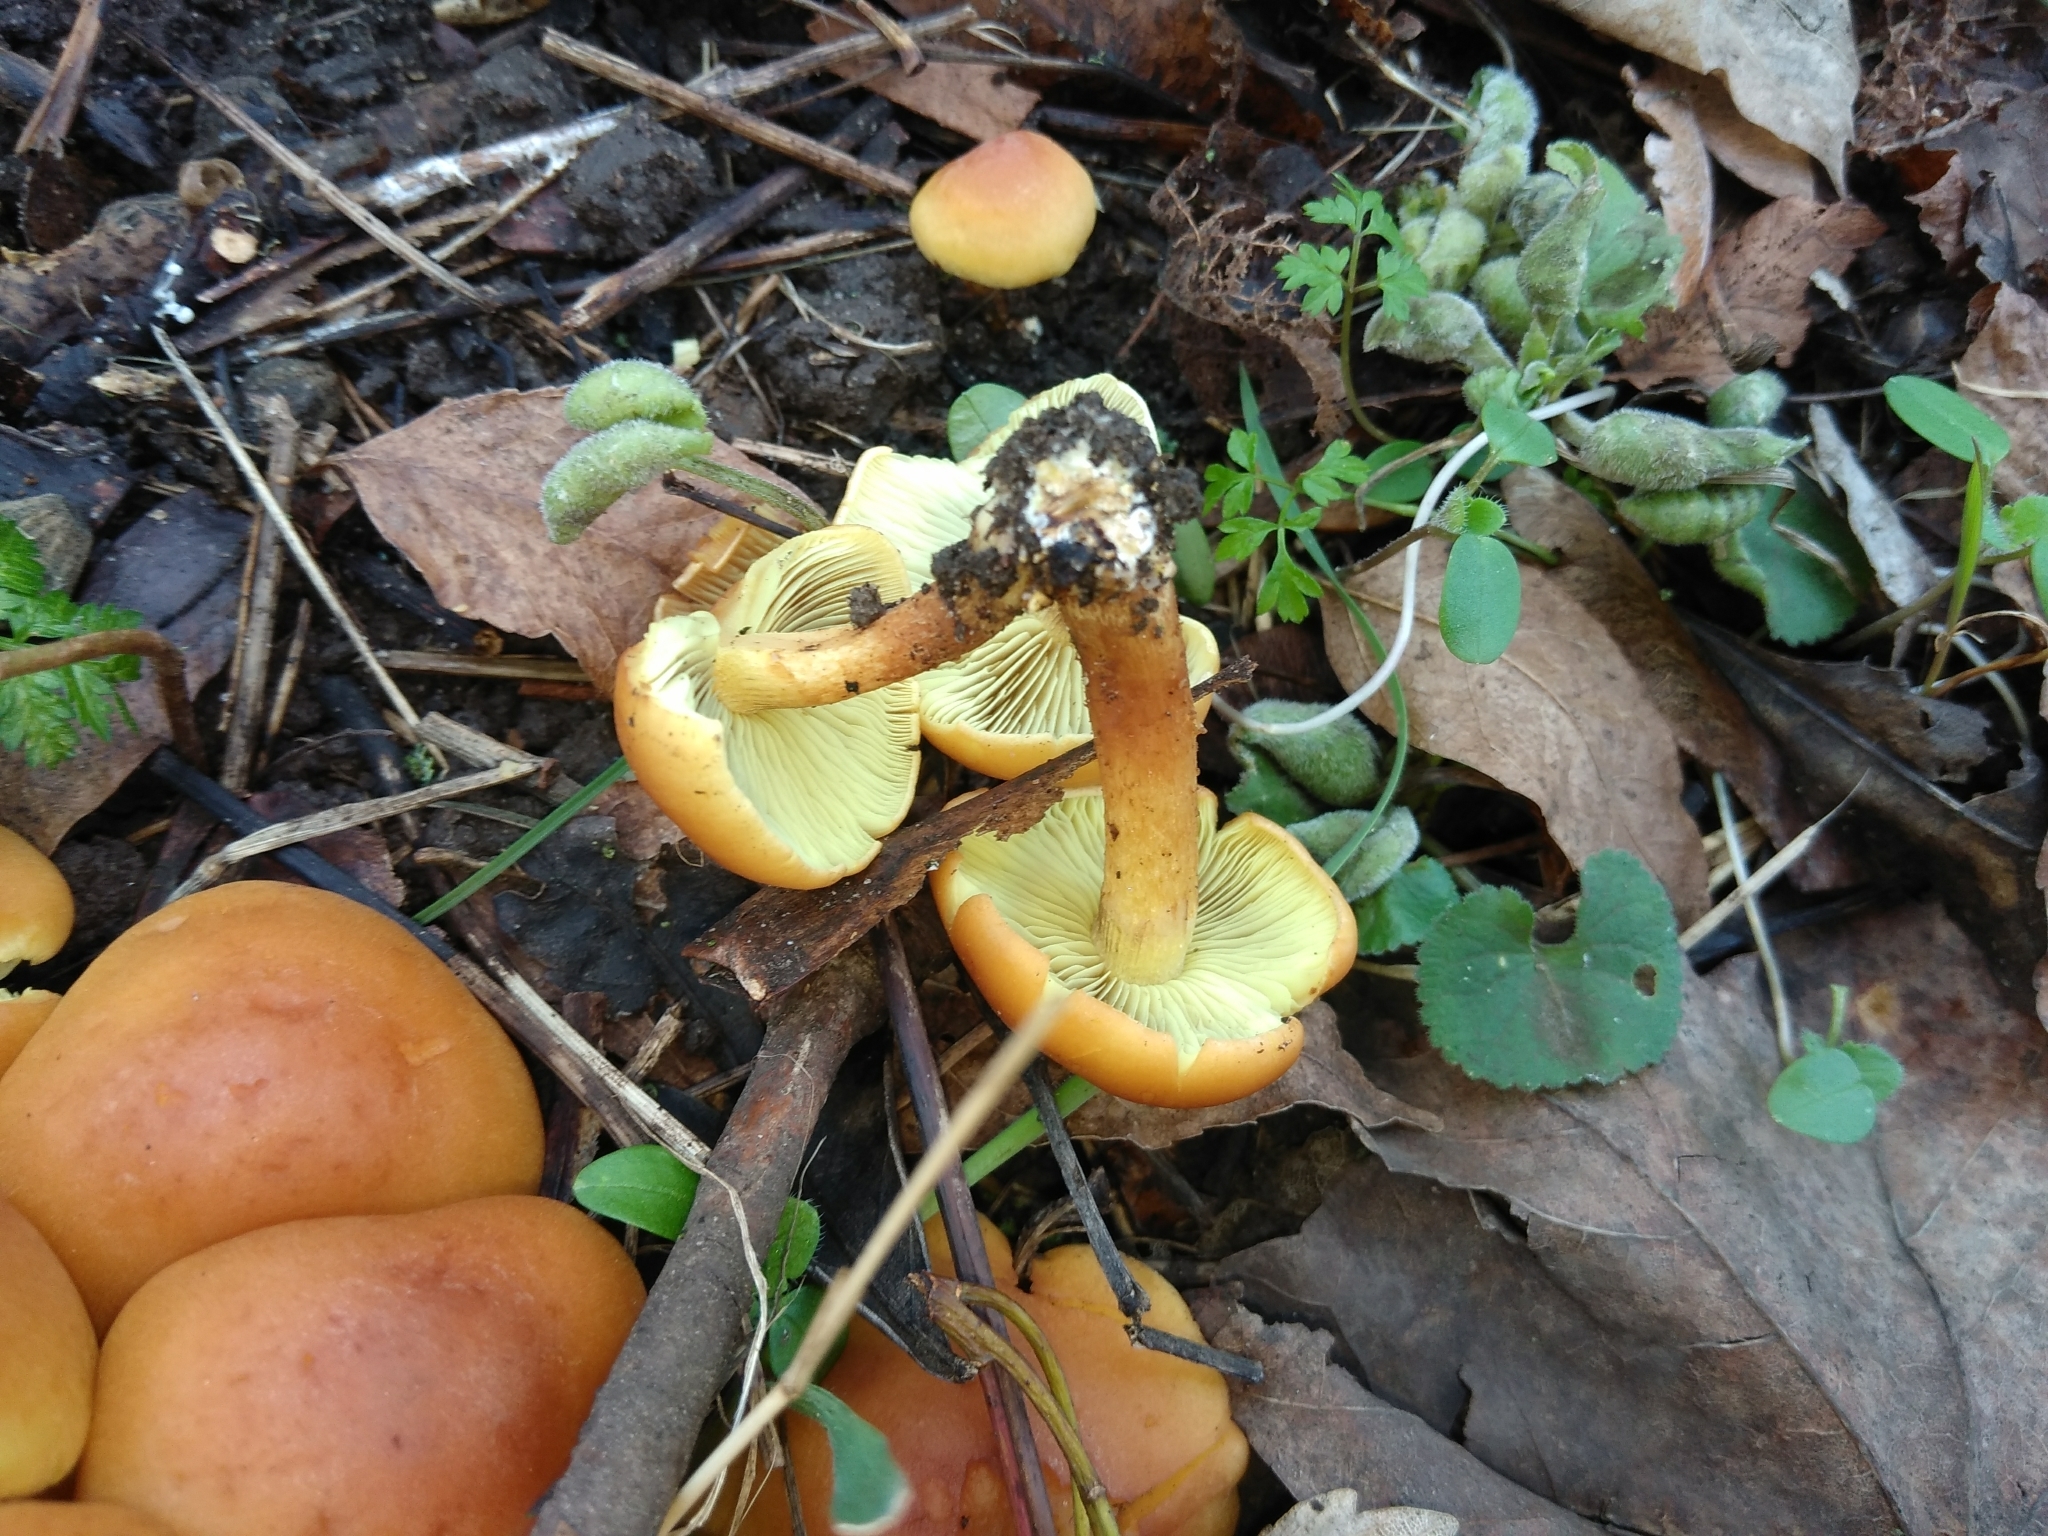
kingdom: Fungi
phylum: Basidiomycota
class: Agaricomycetes
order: Agaricales
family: Strophariaceae
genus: Hypholoma
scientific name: Hypholoma fasciculare
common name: Sulphur tuft
